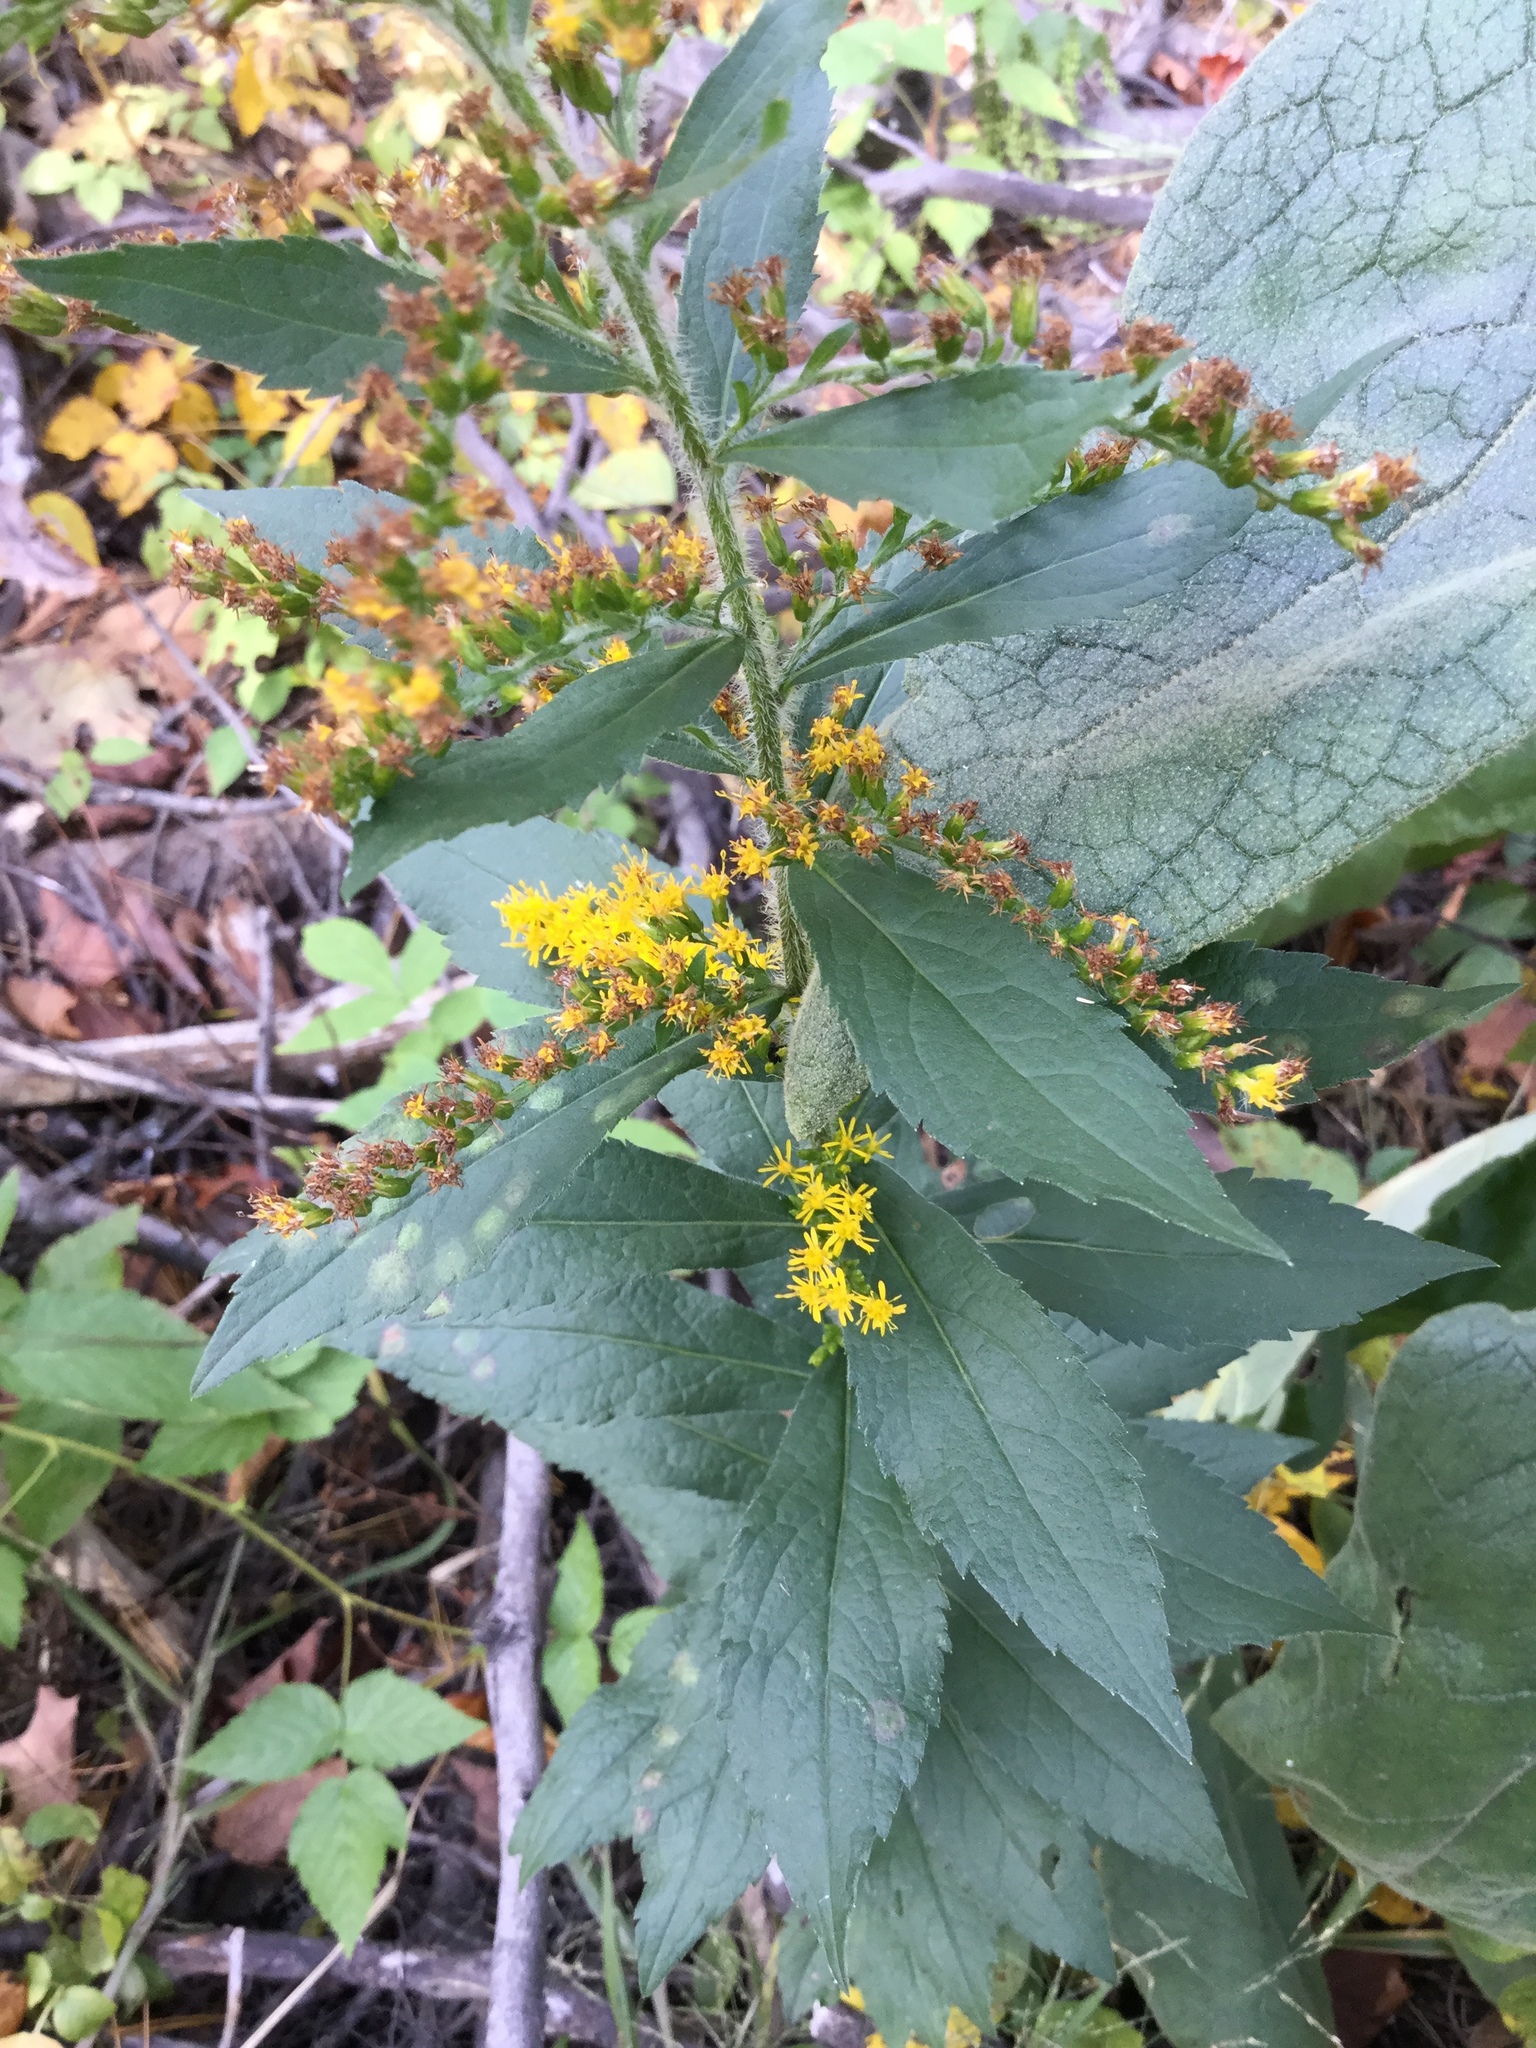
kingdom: Plantae
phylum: Tracheophyta
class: Magnoliopsida
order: Asterales
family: Asteraceae
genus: Solidago
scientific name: Solidago rugosa
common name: Rough-stemmed goldenrod
